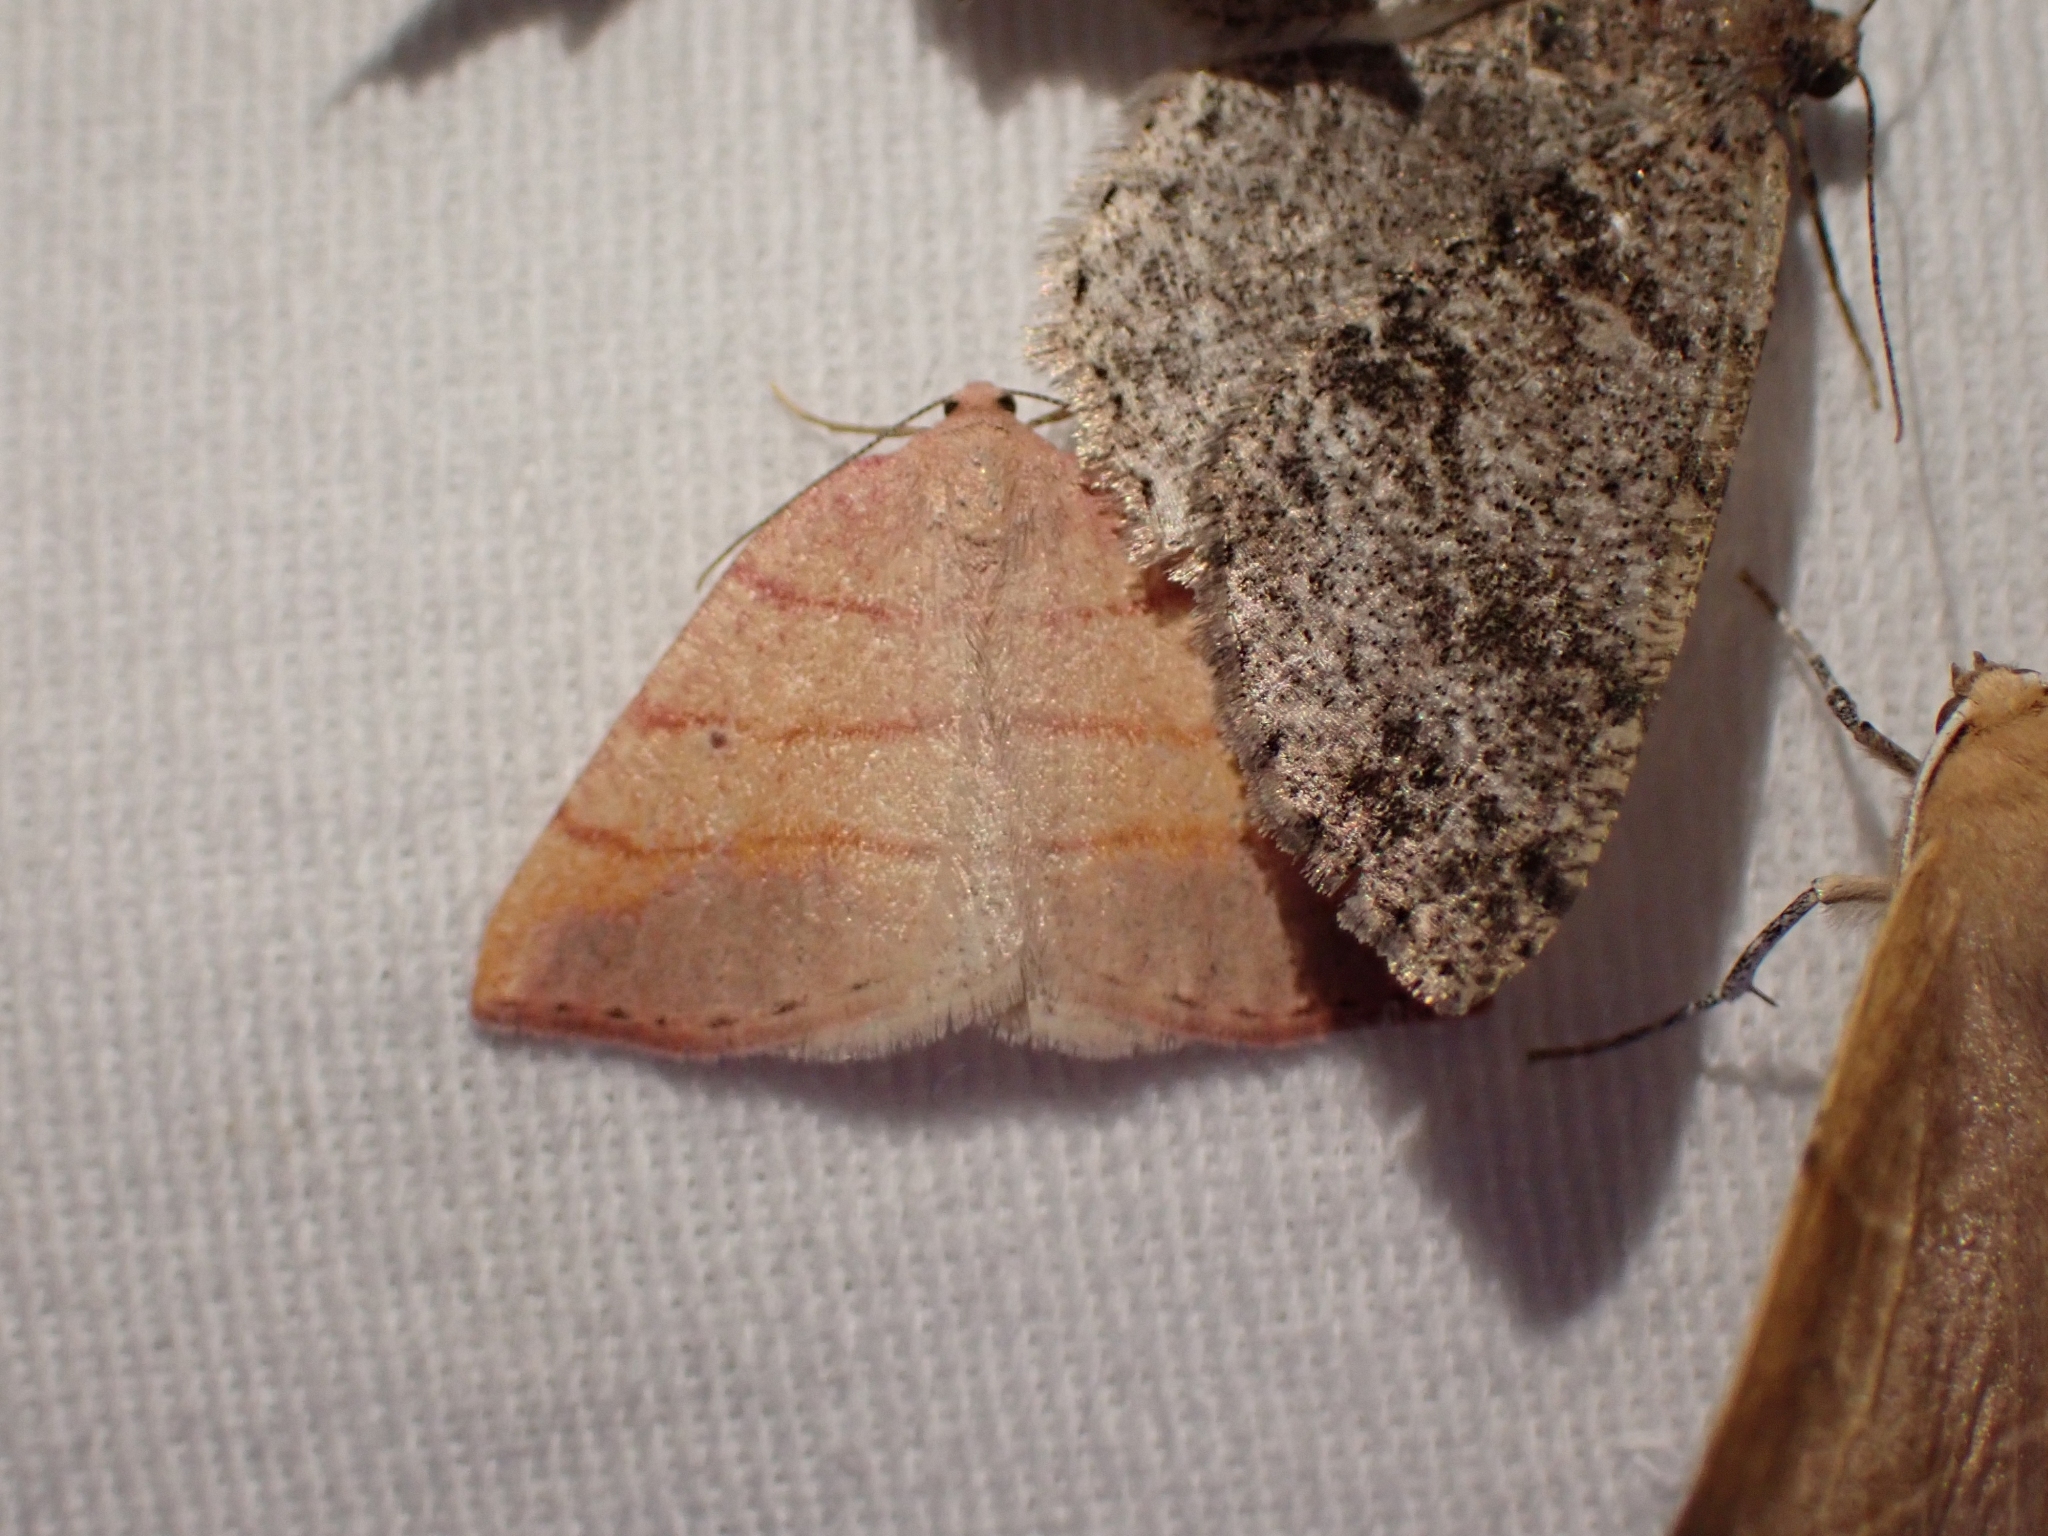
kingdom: Animalia
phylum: Arthropoda
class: Insecta
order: Lepidoptera
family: Geometridae
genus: Drepanulatrix
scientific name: Drepanulatrix carnearia
